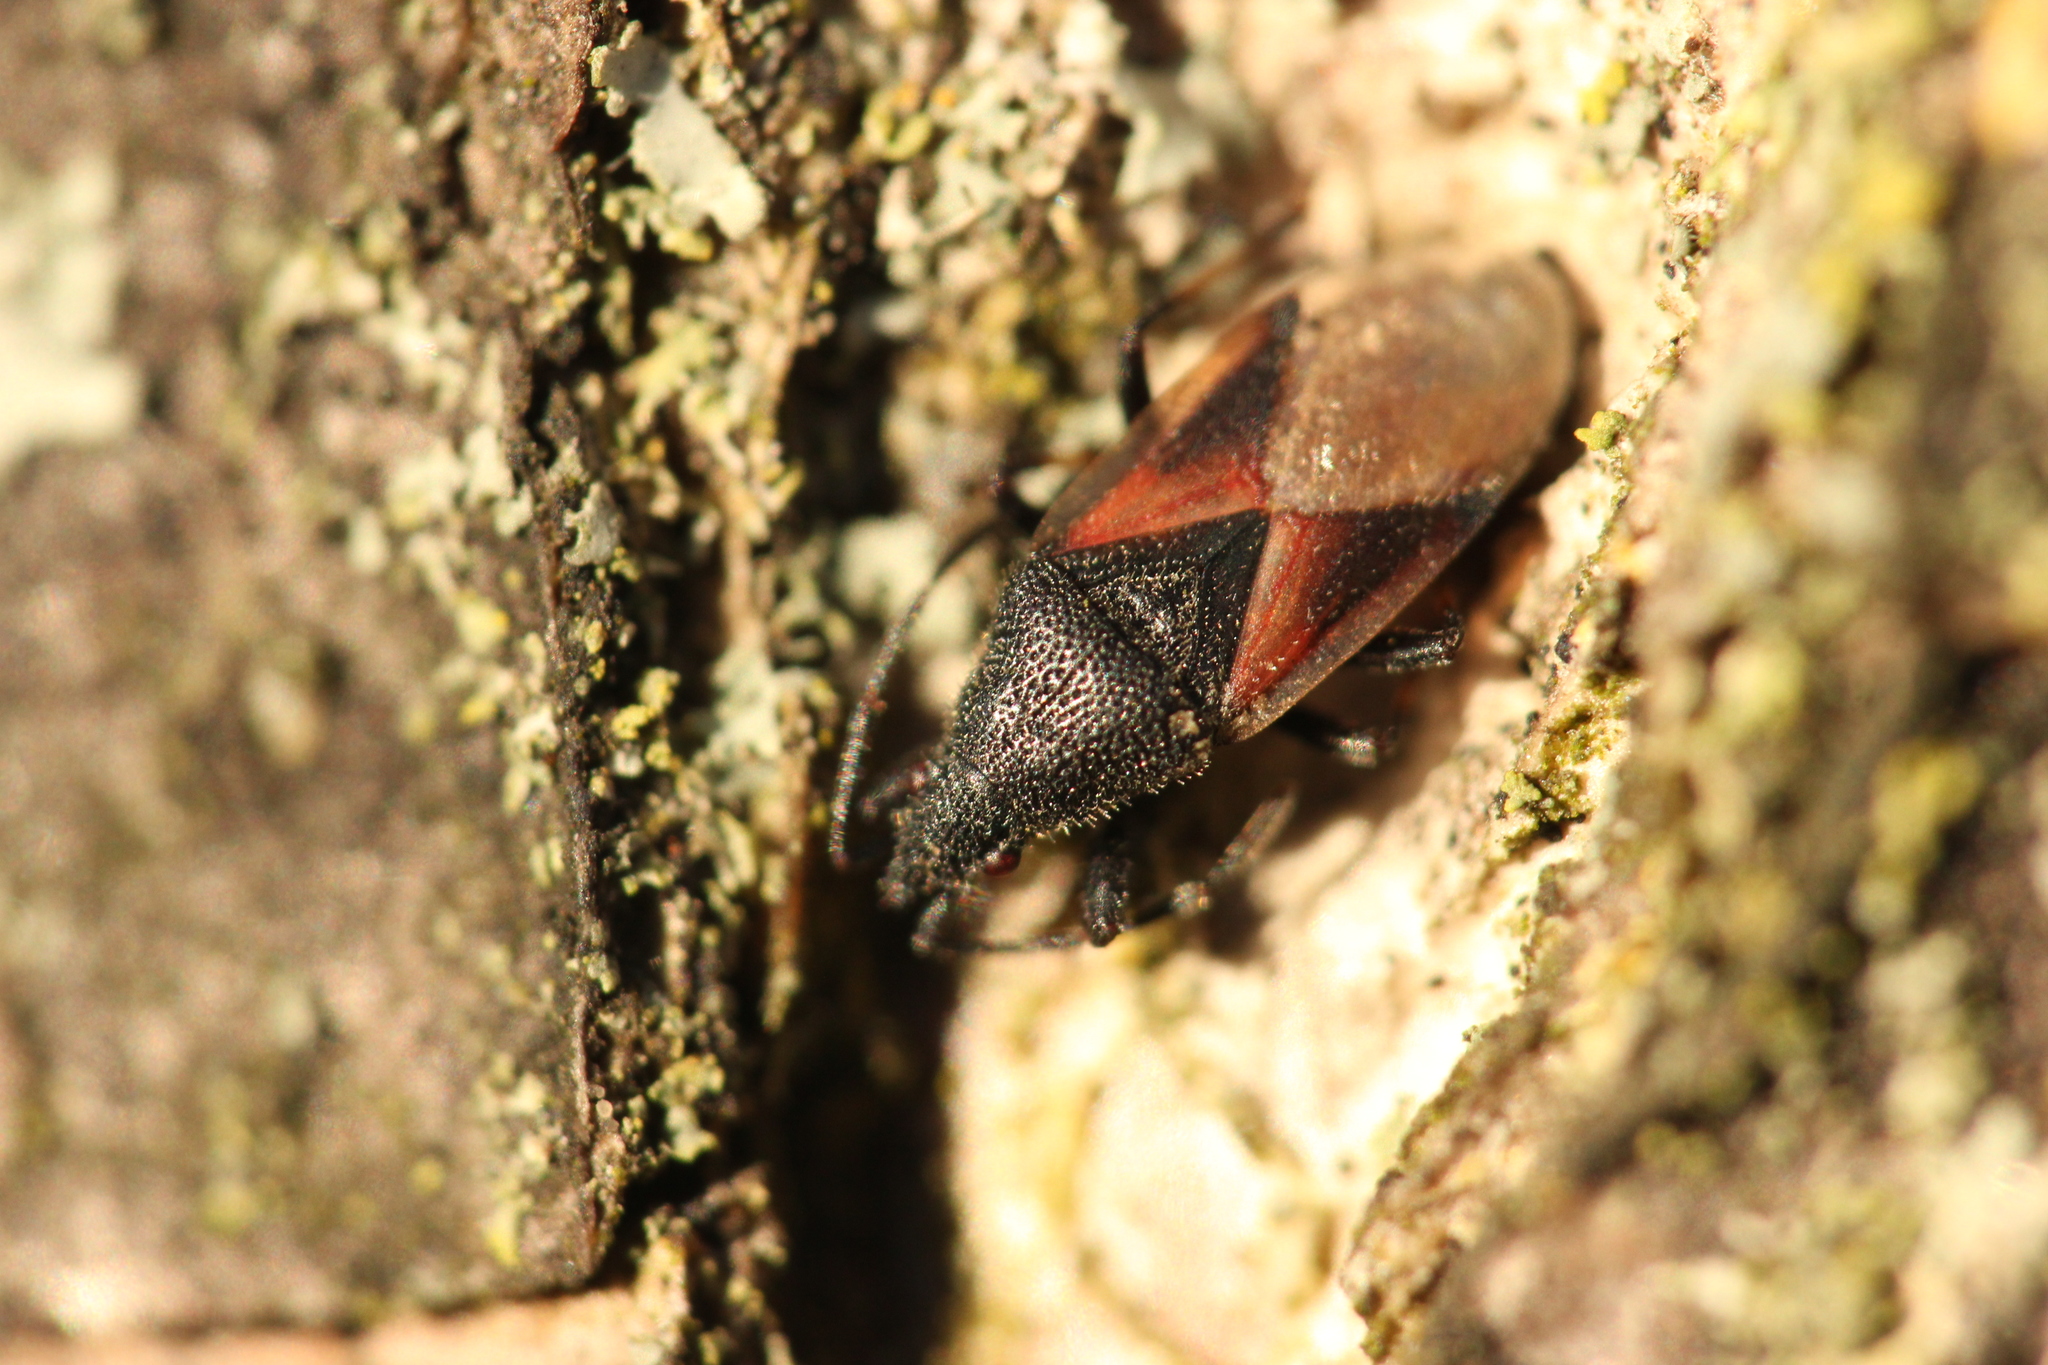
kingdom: Animalia
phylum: Arthropoda
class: Insecta
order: Hemiptera
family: Oxycarenidae
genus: Oxycarenus
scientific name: Oxycarenus lavaterae
